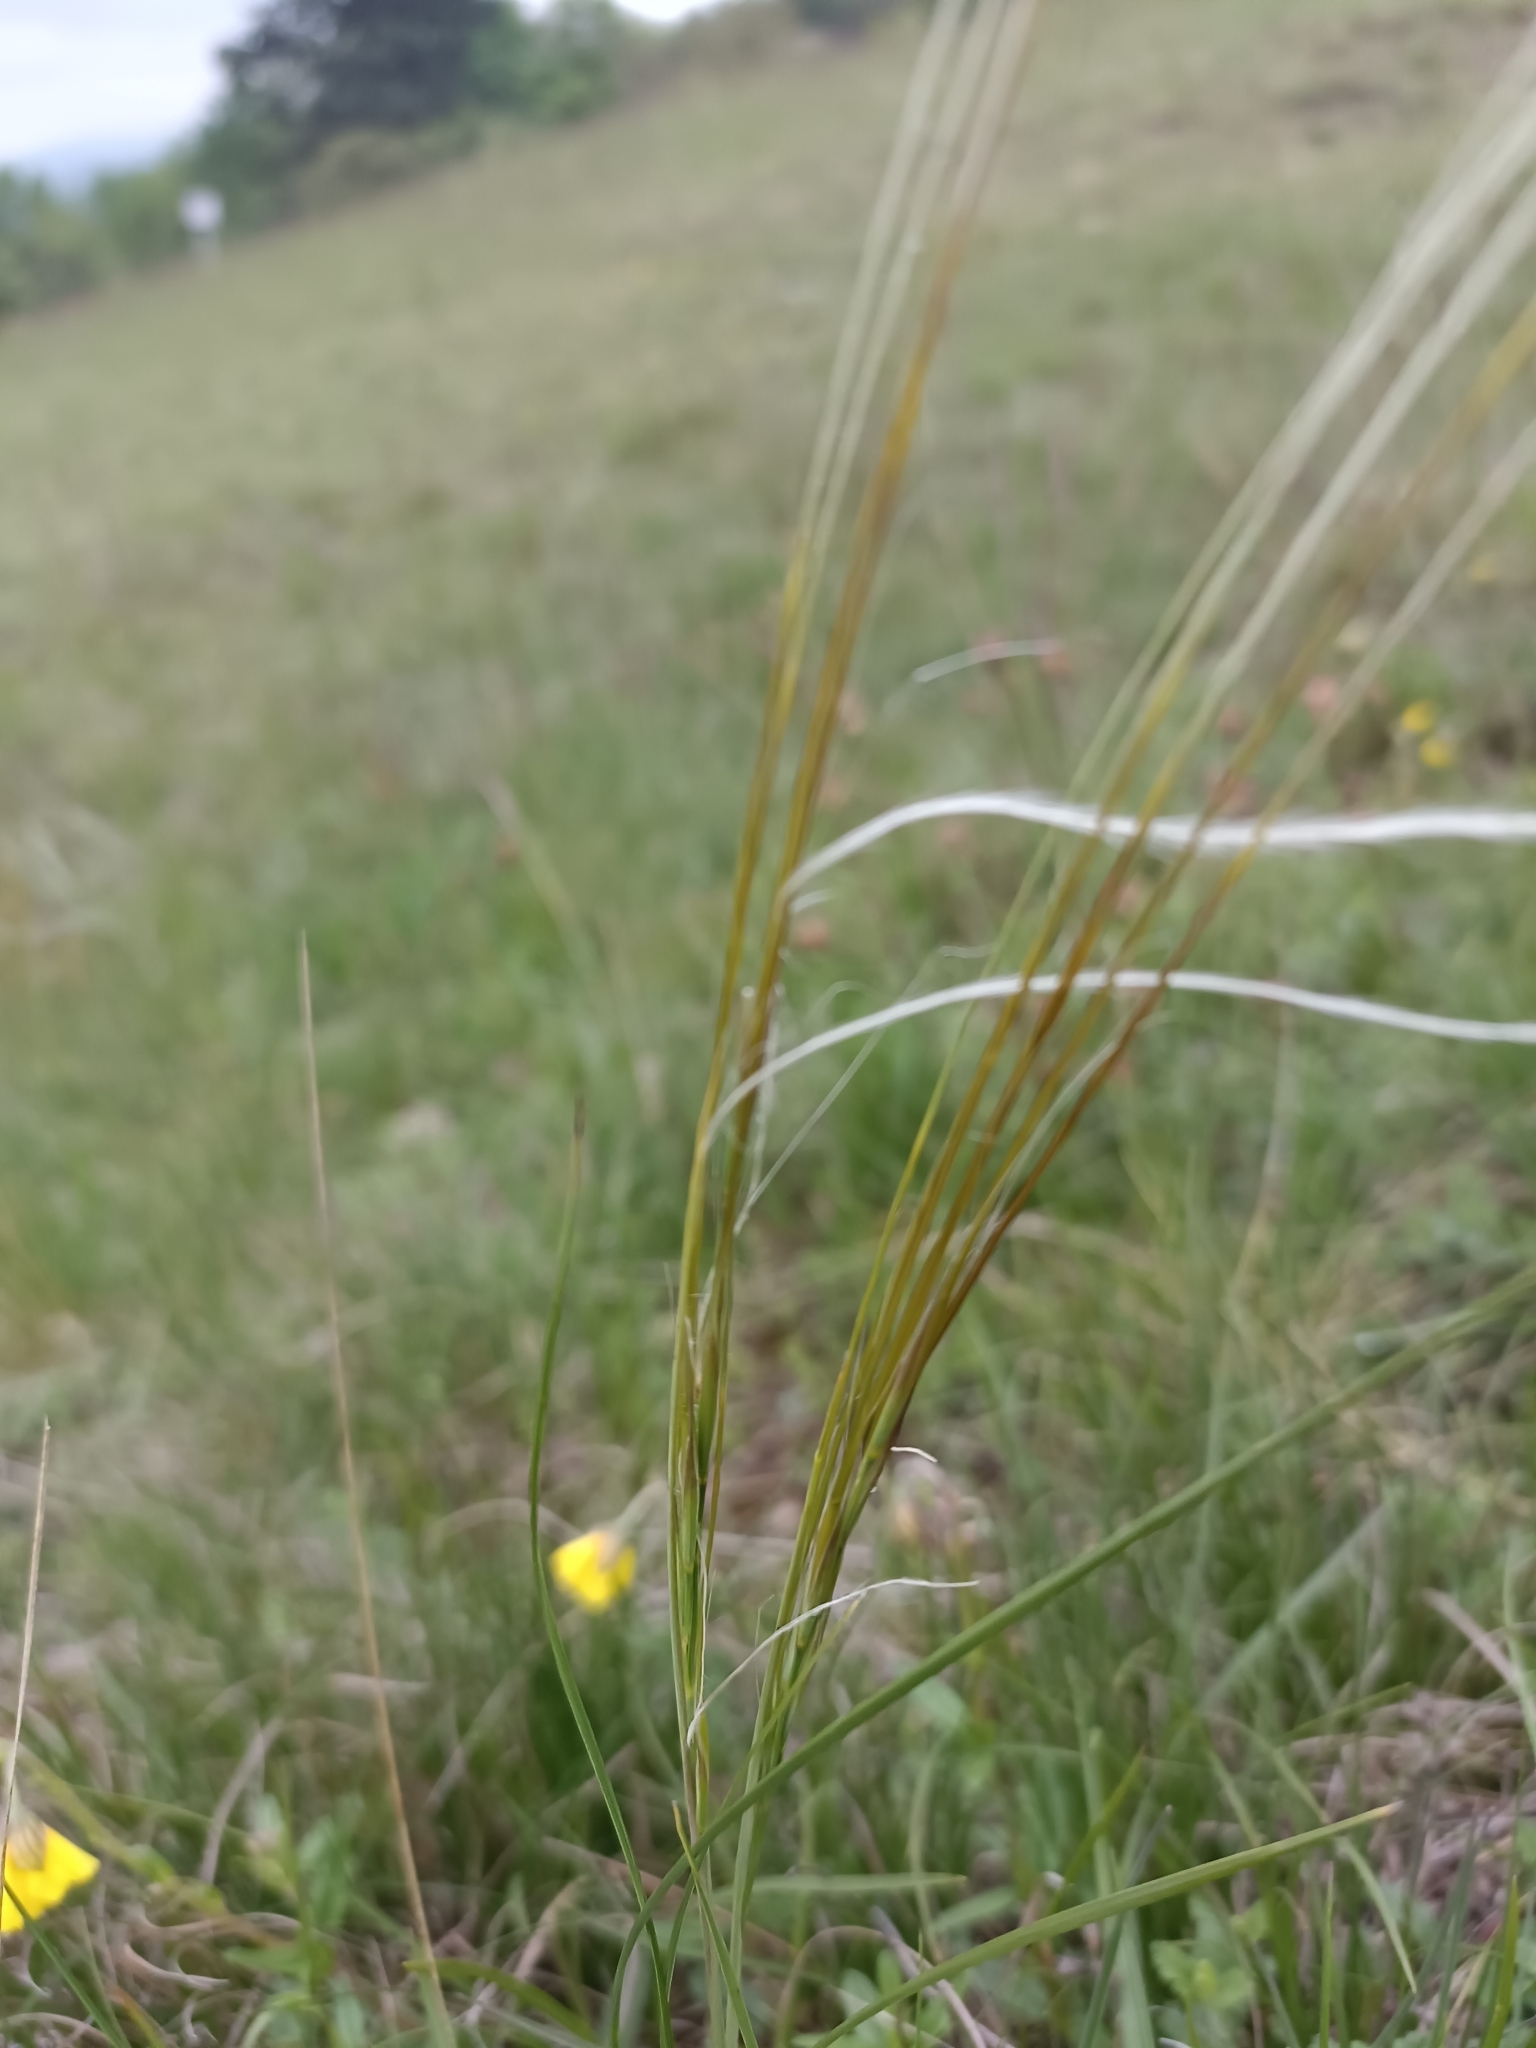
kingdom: Plantae
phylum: Tracheophyta
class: Liliopsida
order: Poales
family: Poaceae
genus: Stipa
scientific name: Stipa pennata
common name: European feather grass
